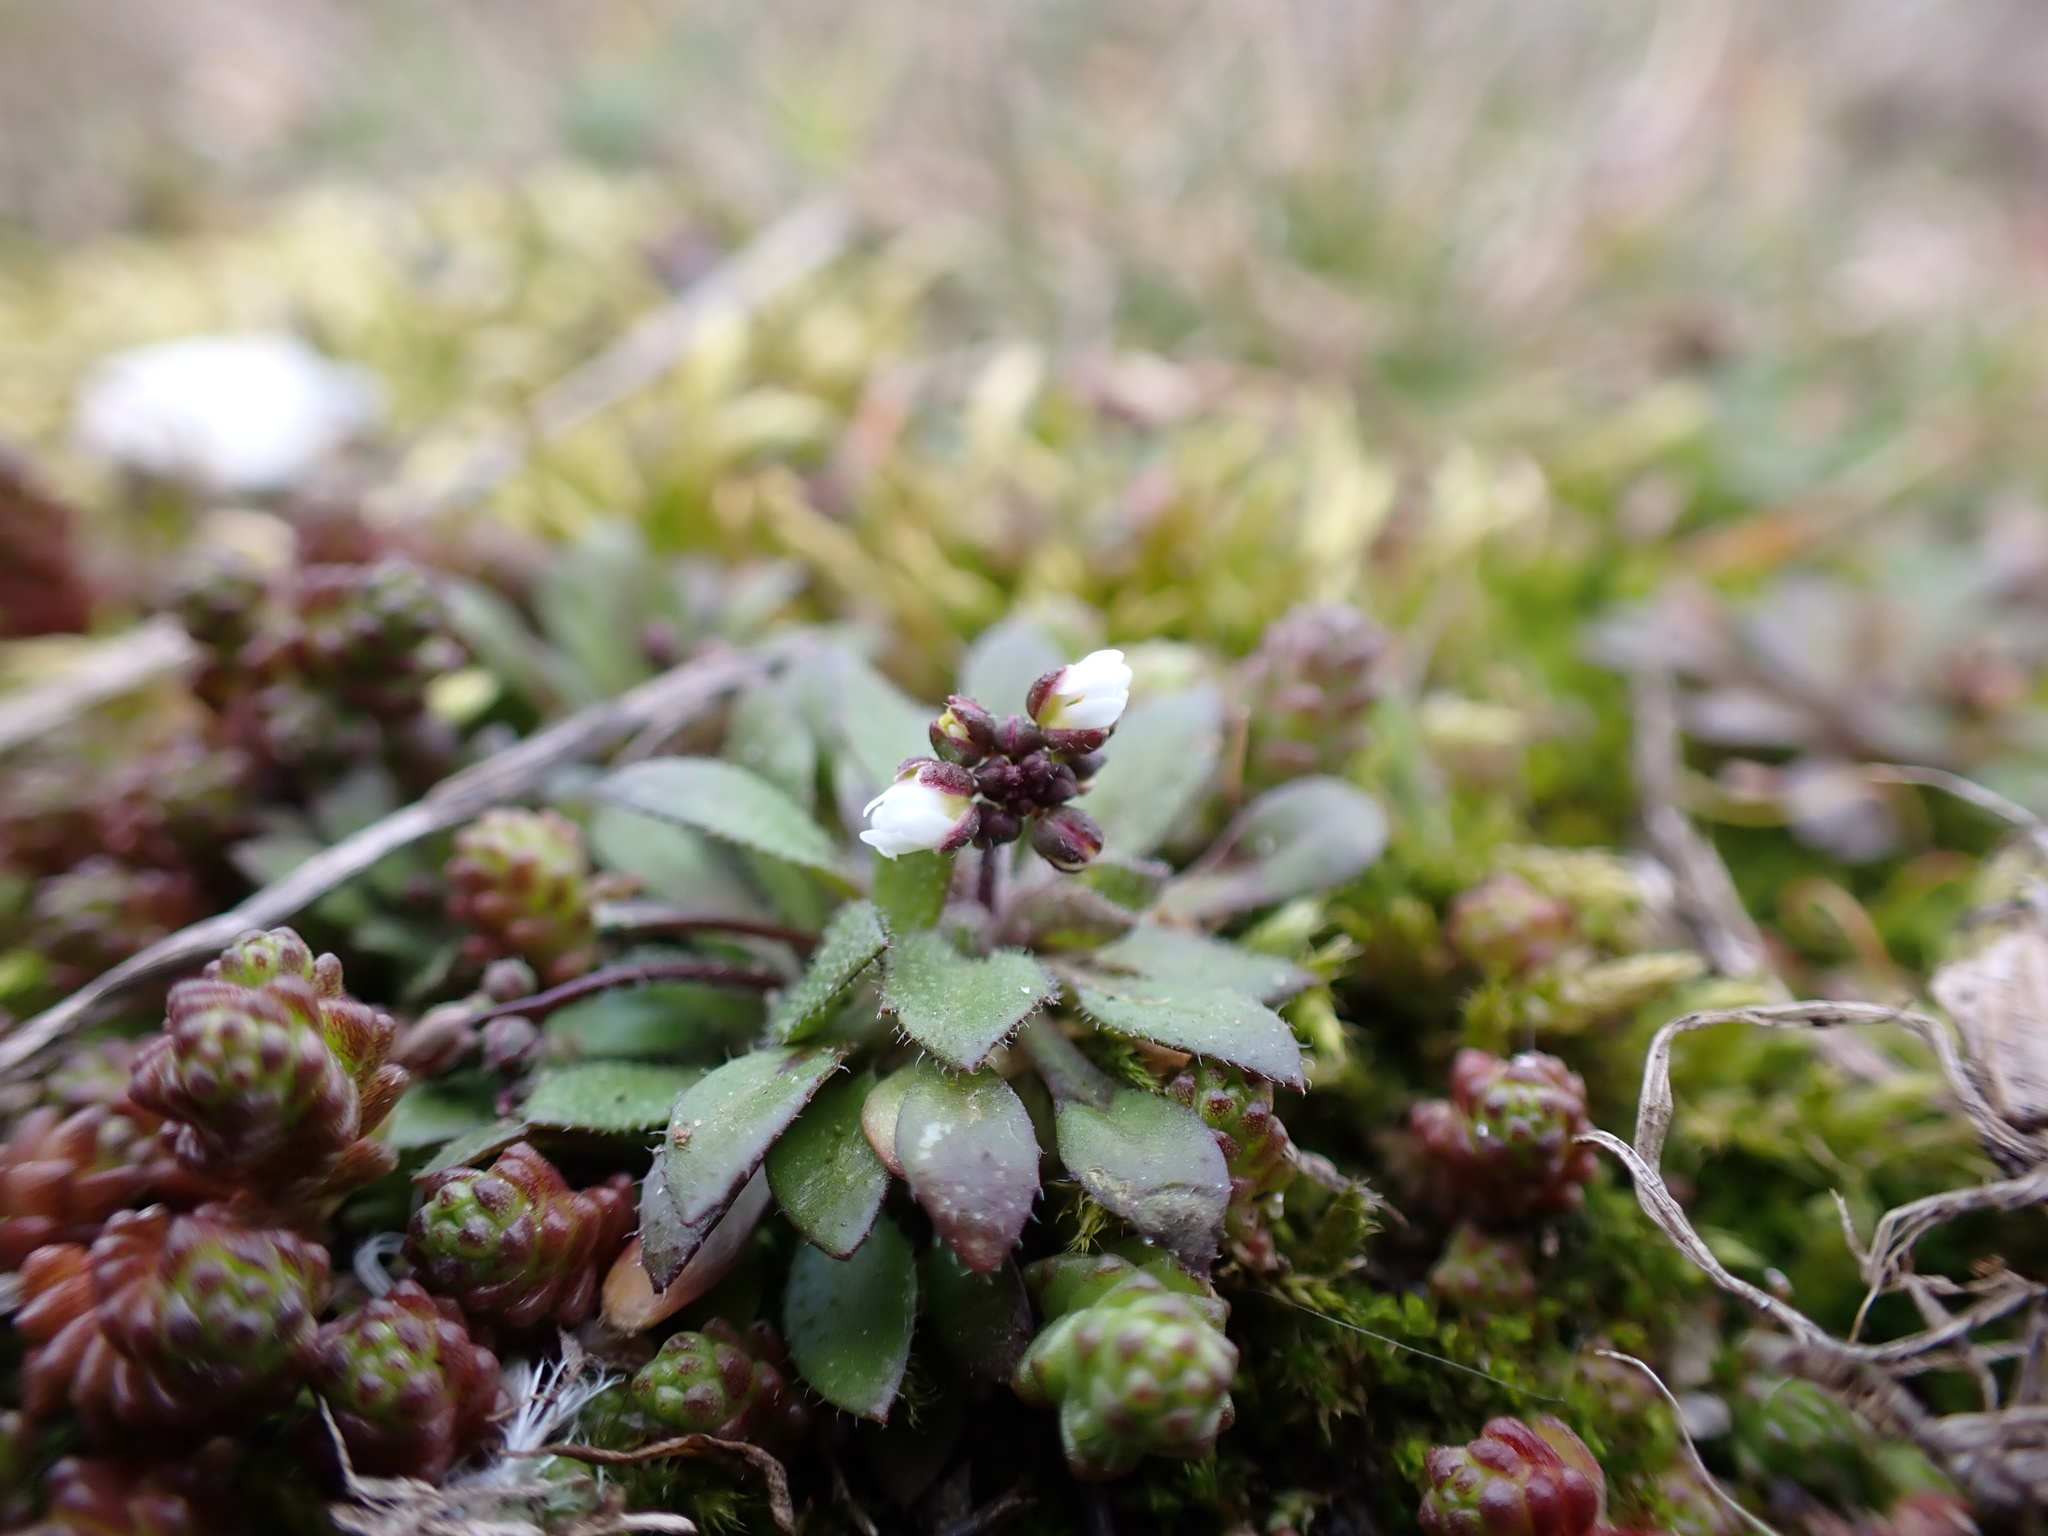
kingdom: Plantae
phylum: Tracheophyta
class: Magnoliopsida
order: Brassicales
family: Brassicaceae
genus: Draba
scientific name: Draba verna
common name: Spring draba
